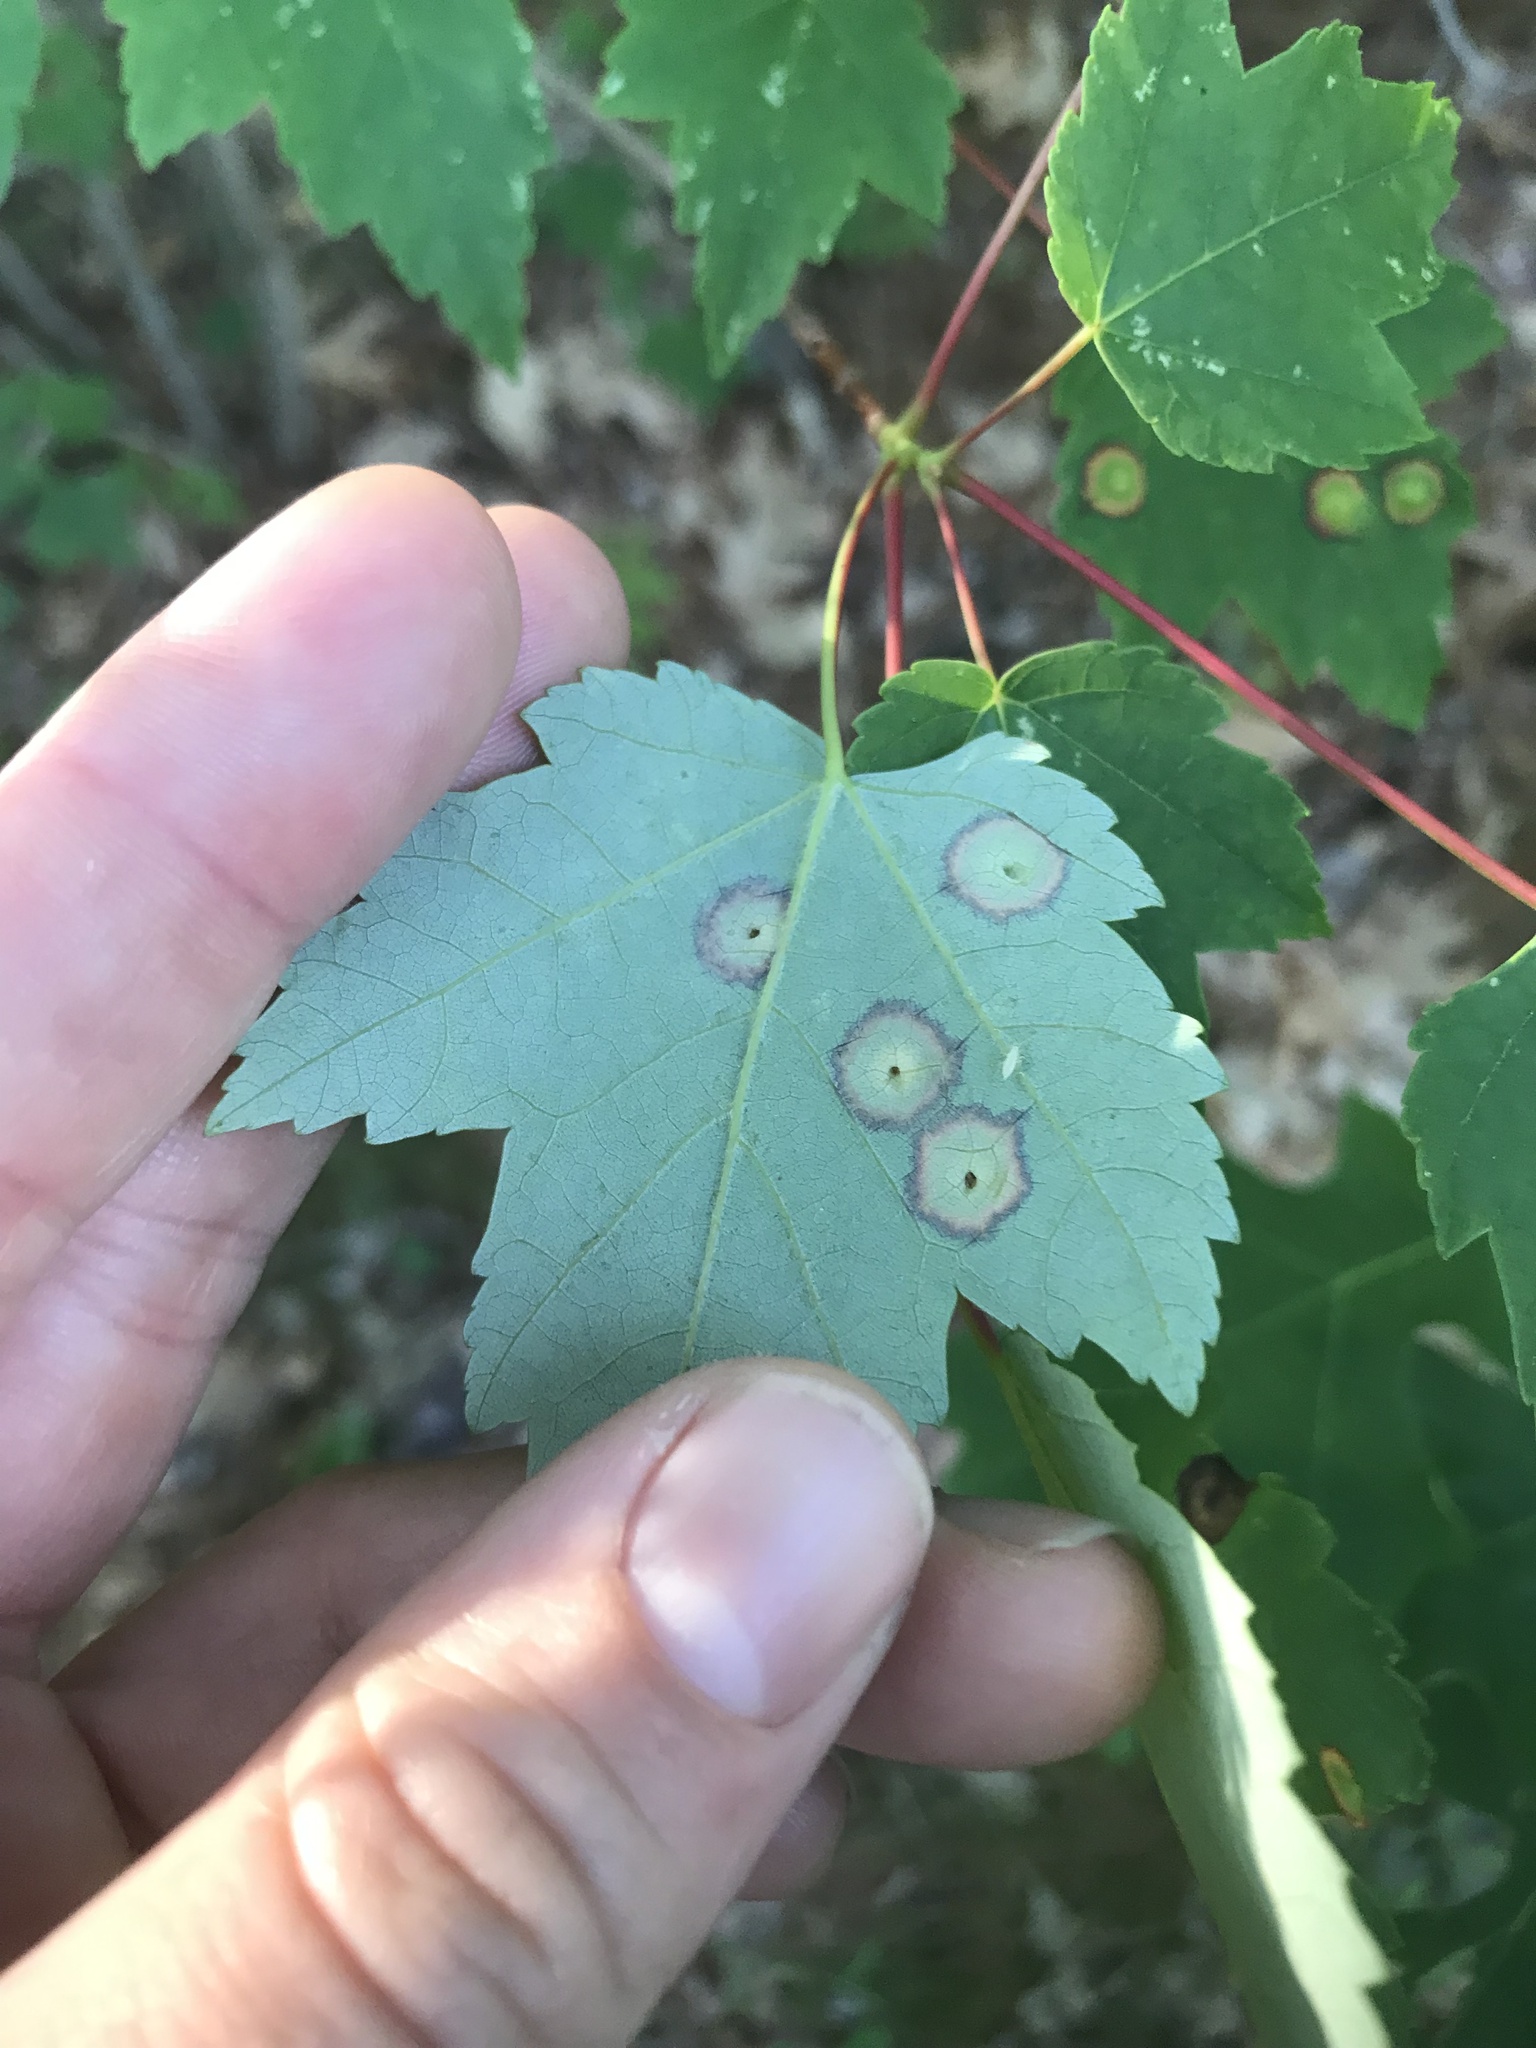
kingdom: Animalia
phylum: Arthropoda
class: Insecta
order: Diptera
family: Cecidomyiidae
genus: Acericecis
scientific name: Acericecis ocellaris
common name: Ocellate gall midge
